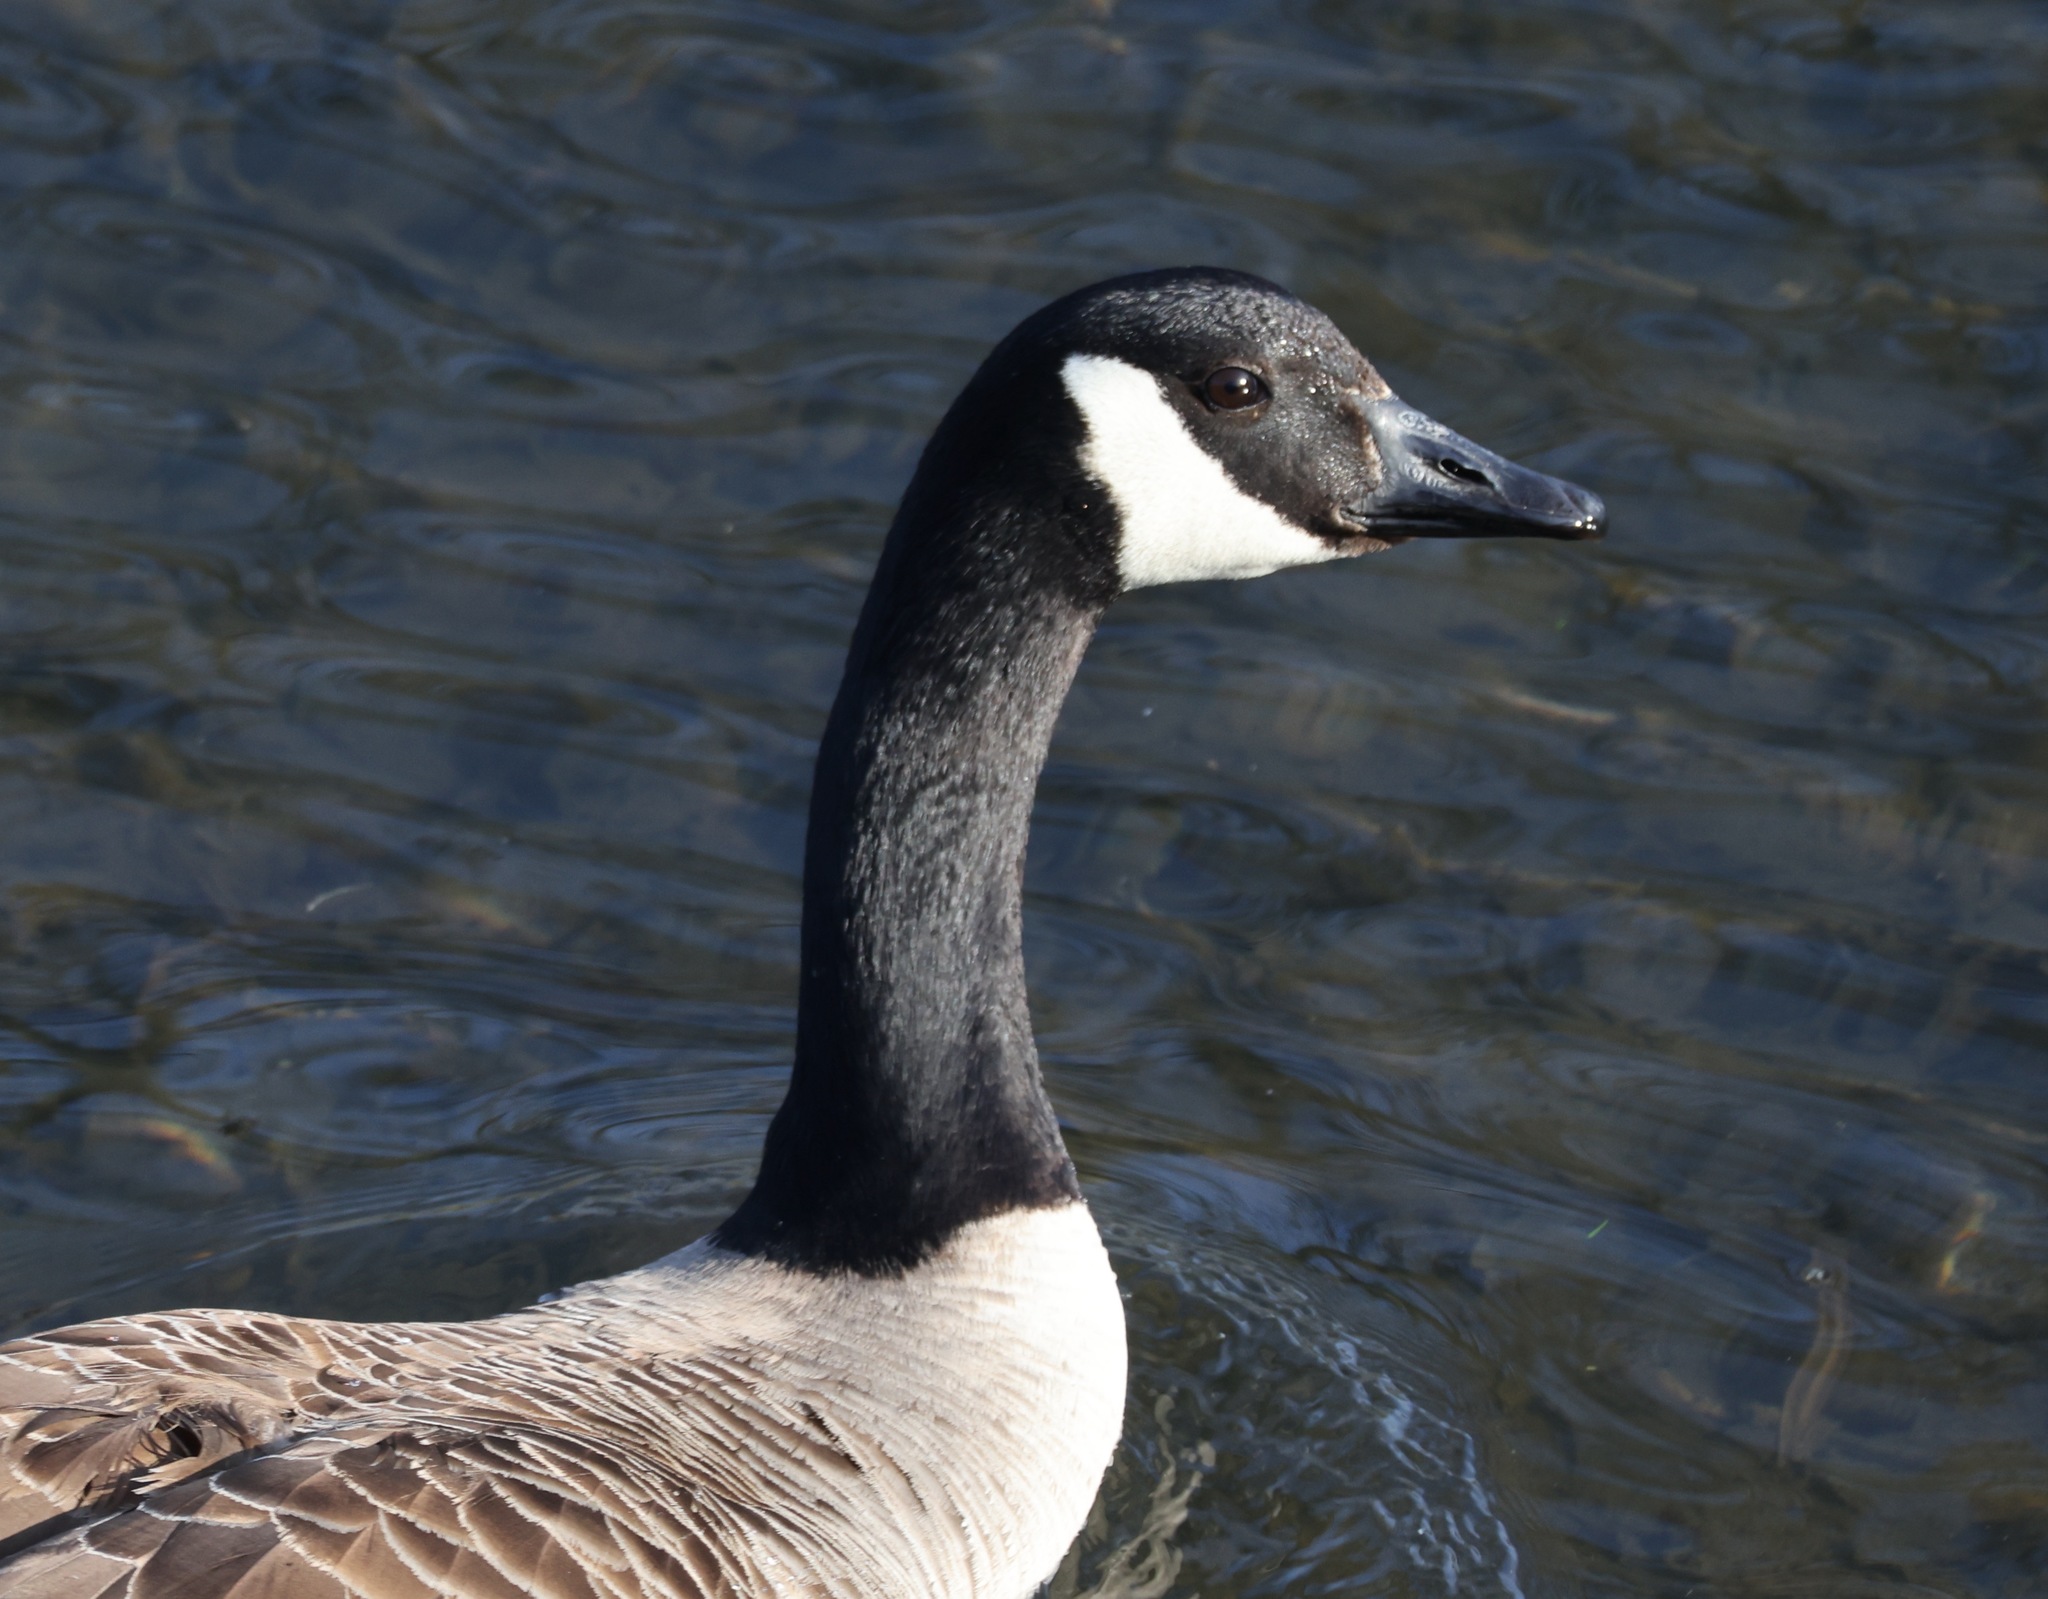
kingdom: Animalia
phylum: Chordata
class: Aves
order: Anseriformes
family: Anatidae
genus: Branta
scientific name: Branta canadensis
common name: Canada goose
